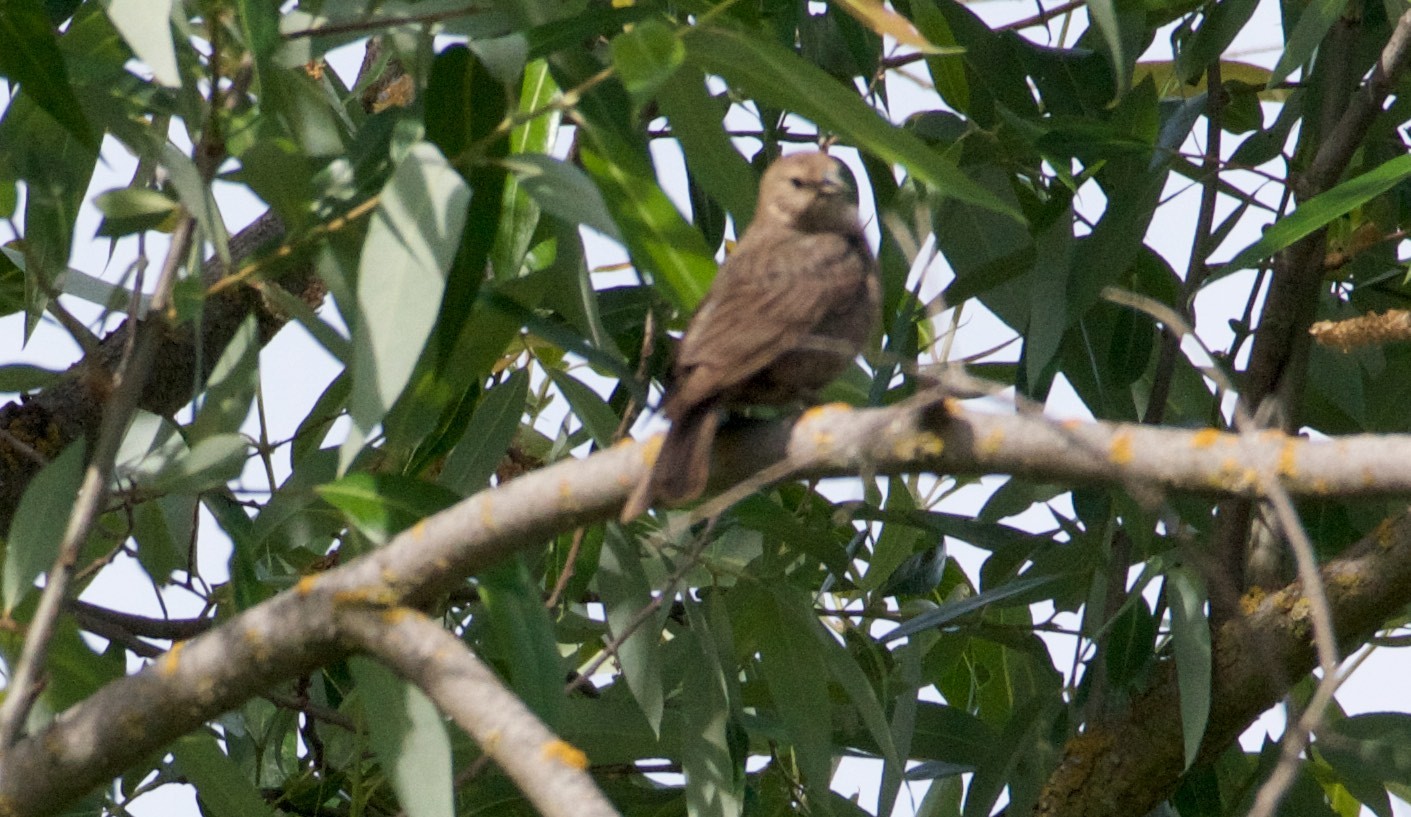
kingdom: Animalia
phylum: Chordata
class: Aves
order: Passeriformes
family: Icteridae
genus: Molothrus
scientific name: Molothrus ater
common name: Brown-headed cowbird
